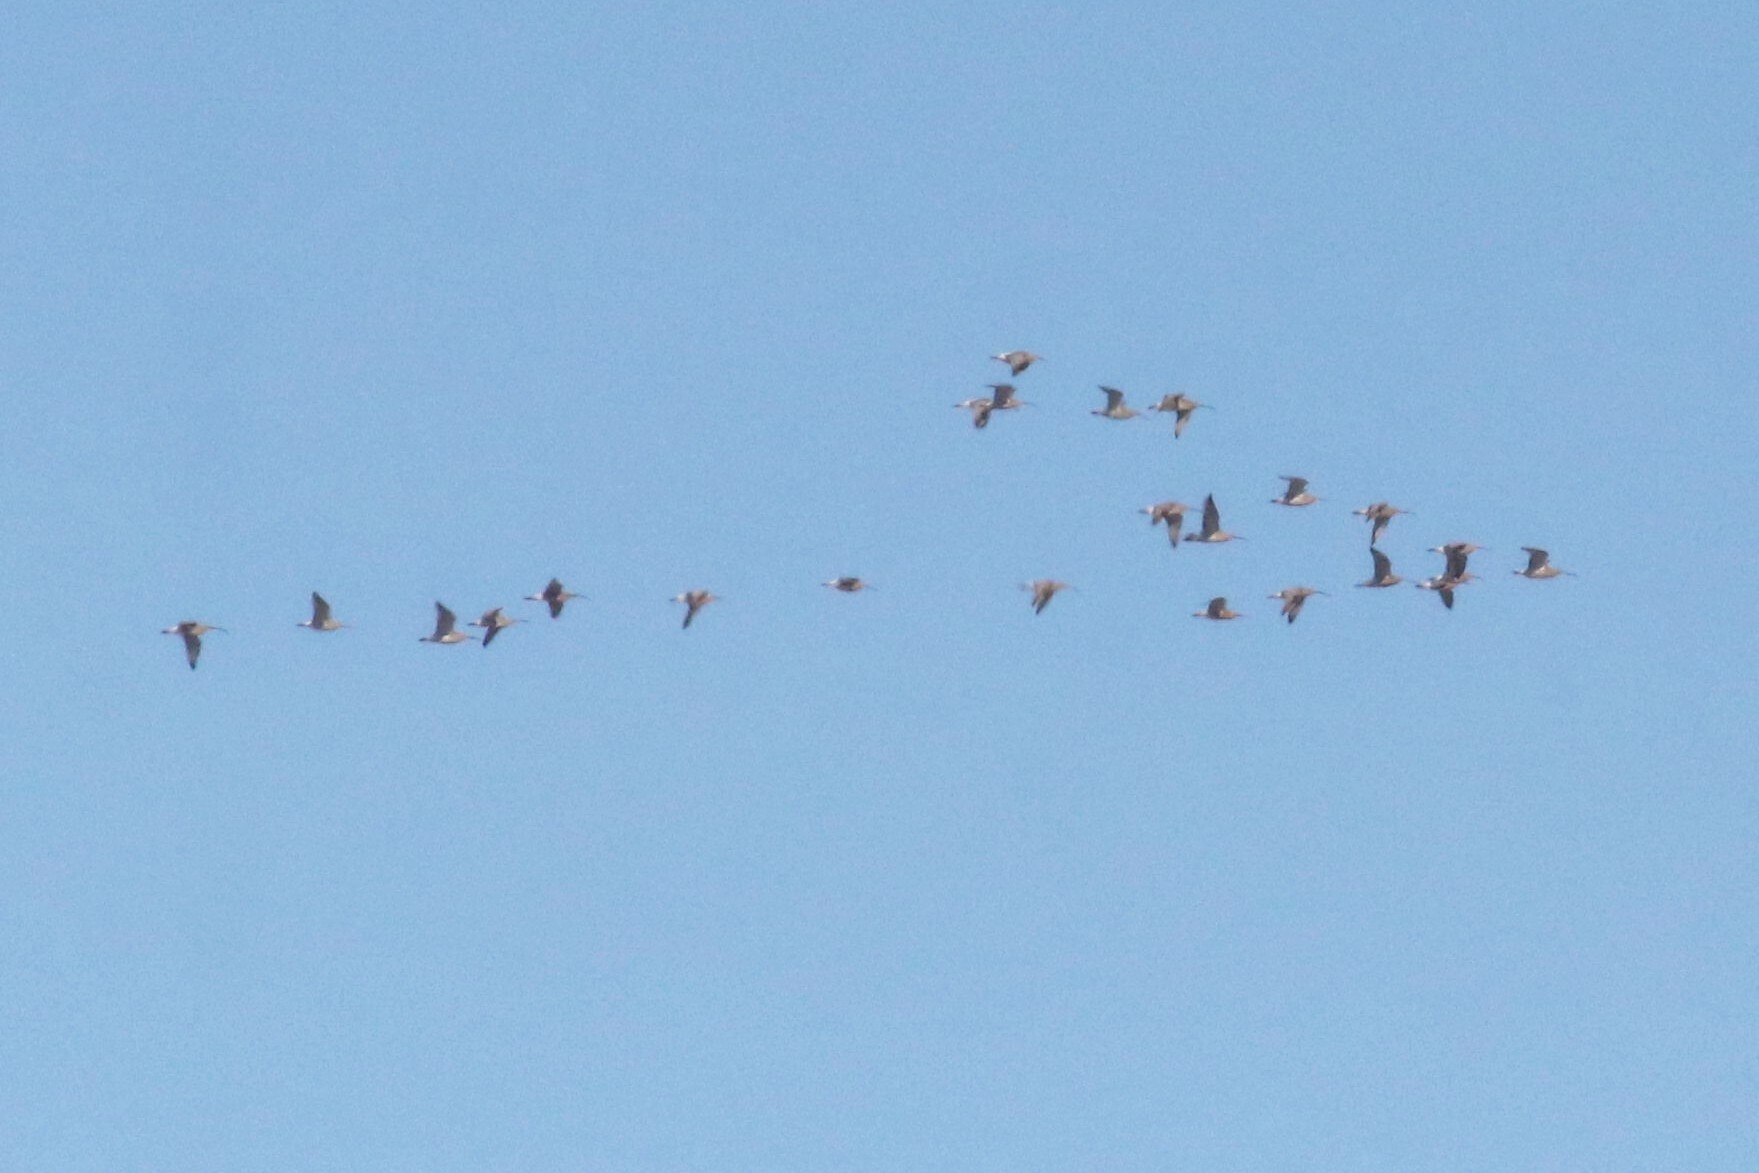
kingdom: Animalia
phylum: Chordata
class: Aves
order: Charadriiformes
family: Scolopacidae
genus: Numenius
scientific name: Numenius arquata
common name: Eurasian curlew
